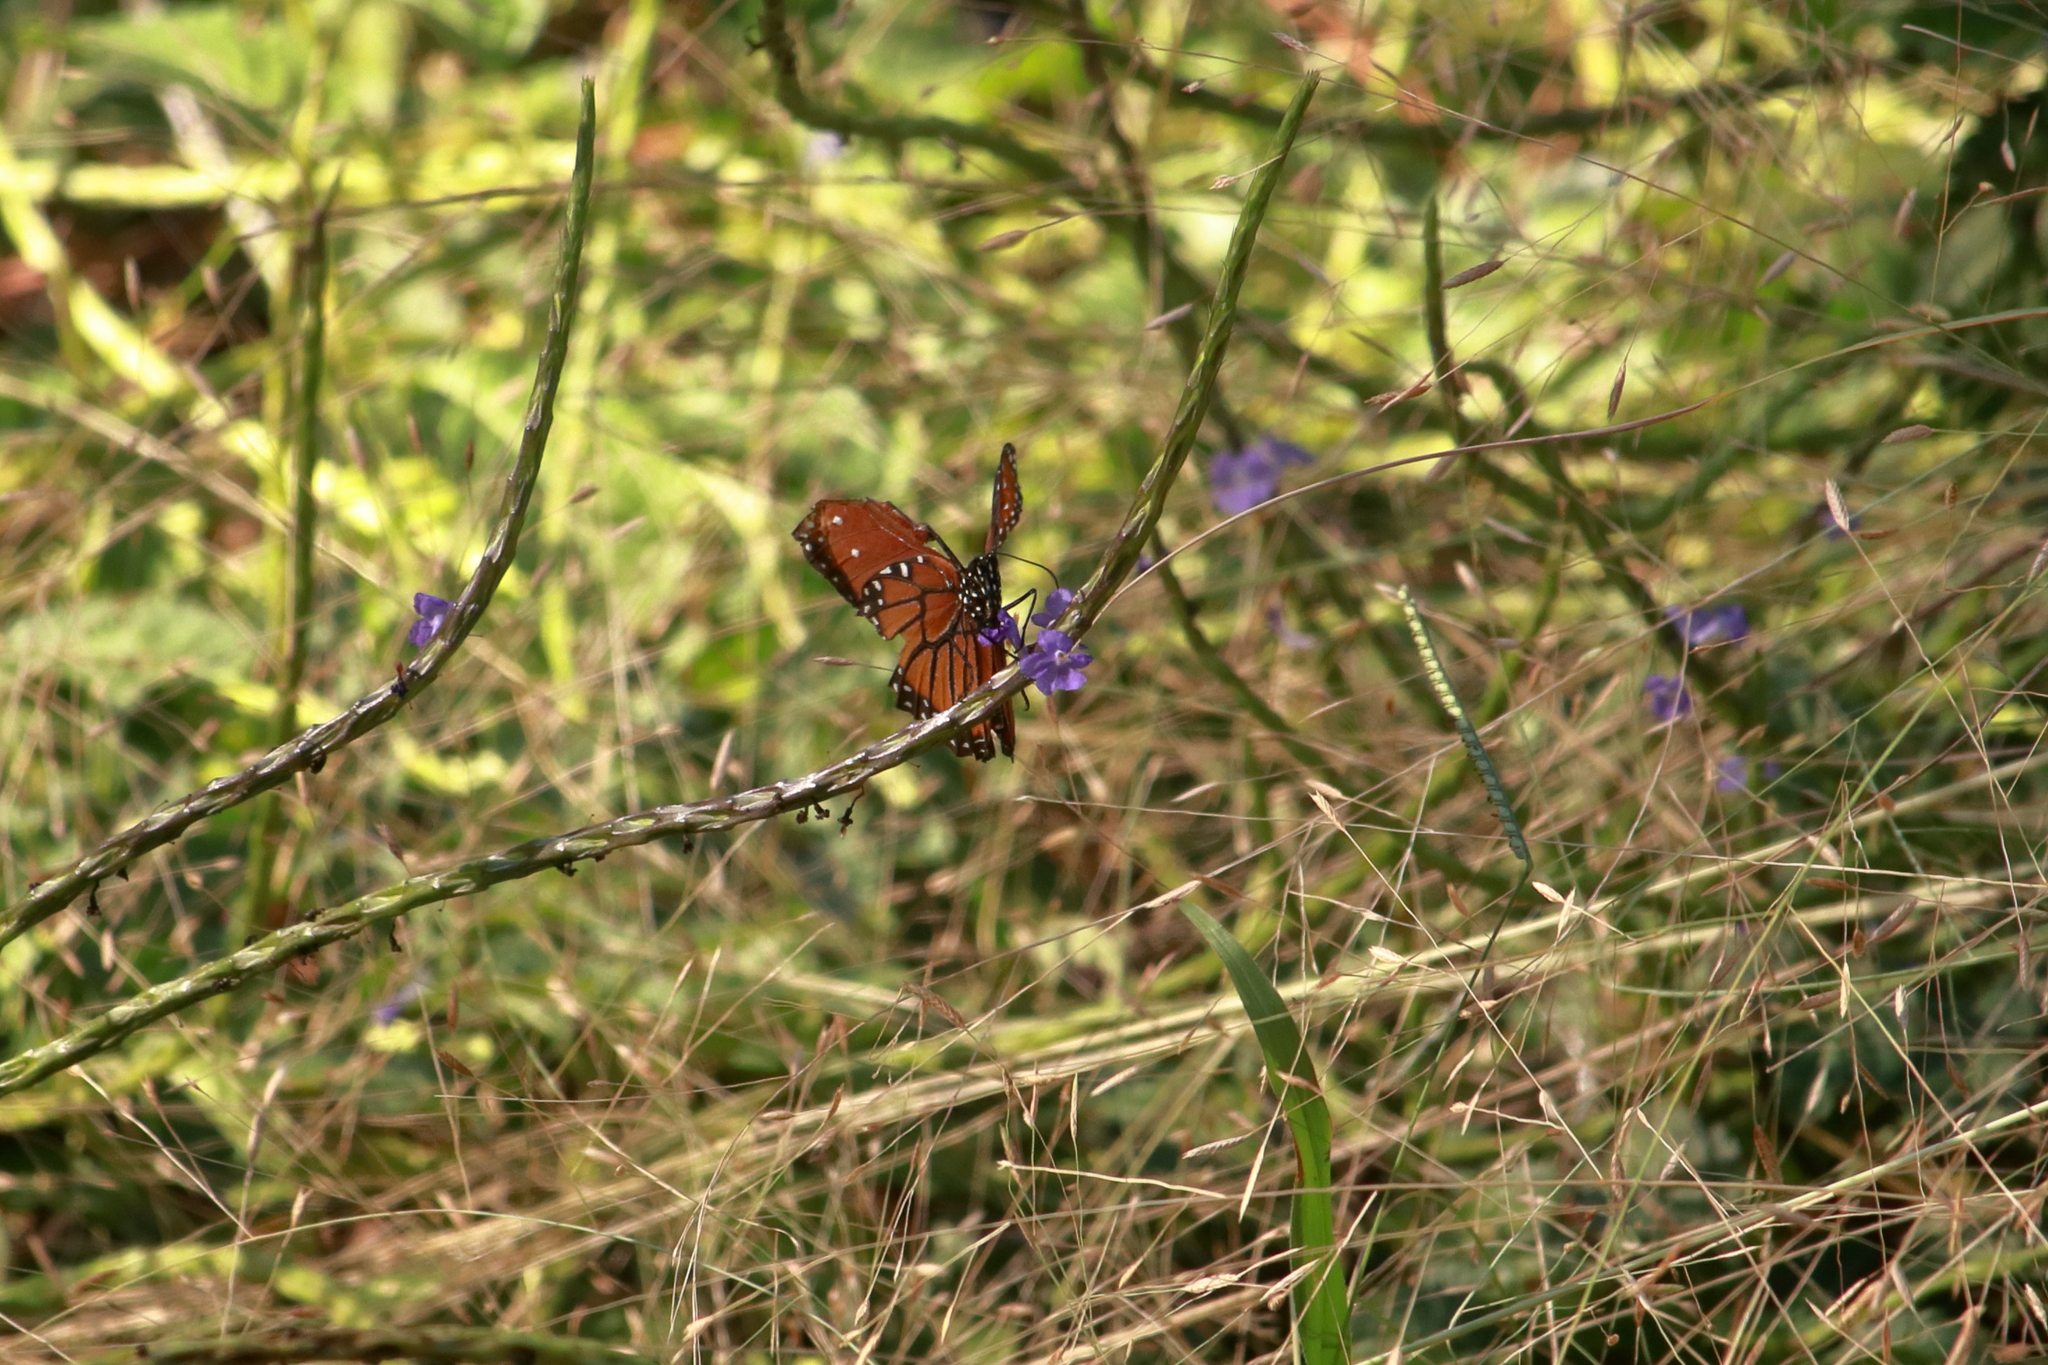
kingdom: Animalia
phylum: Arthropoda
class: Insecta
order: Lepidoptera
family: Nymphalidae
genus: Danaus
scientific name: Danaus gilippus
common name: Queen
